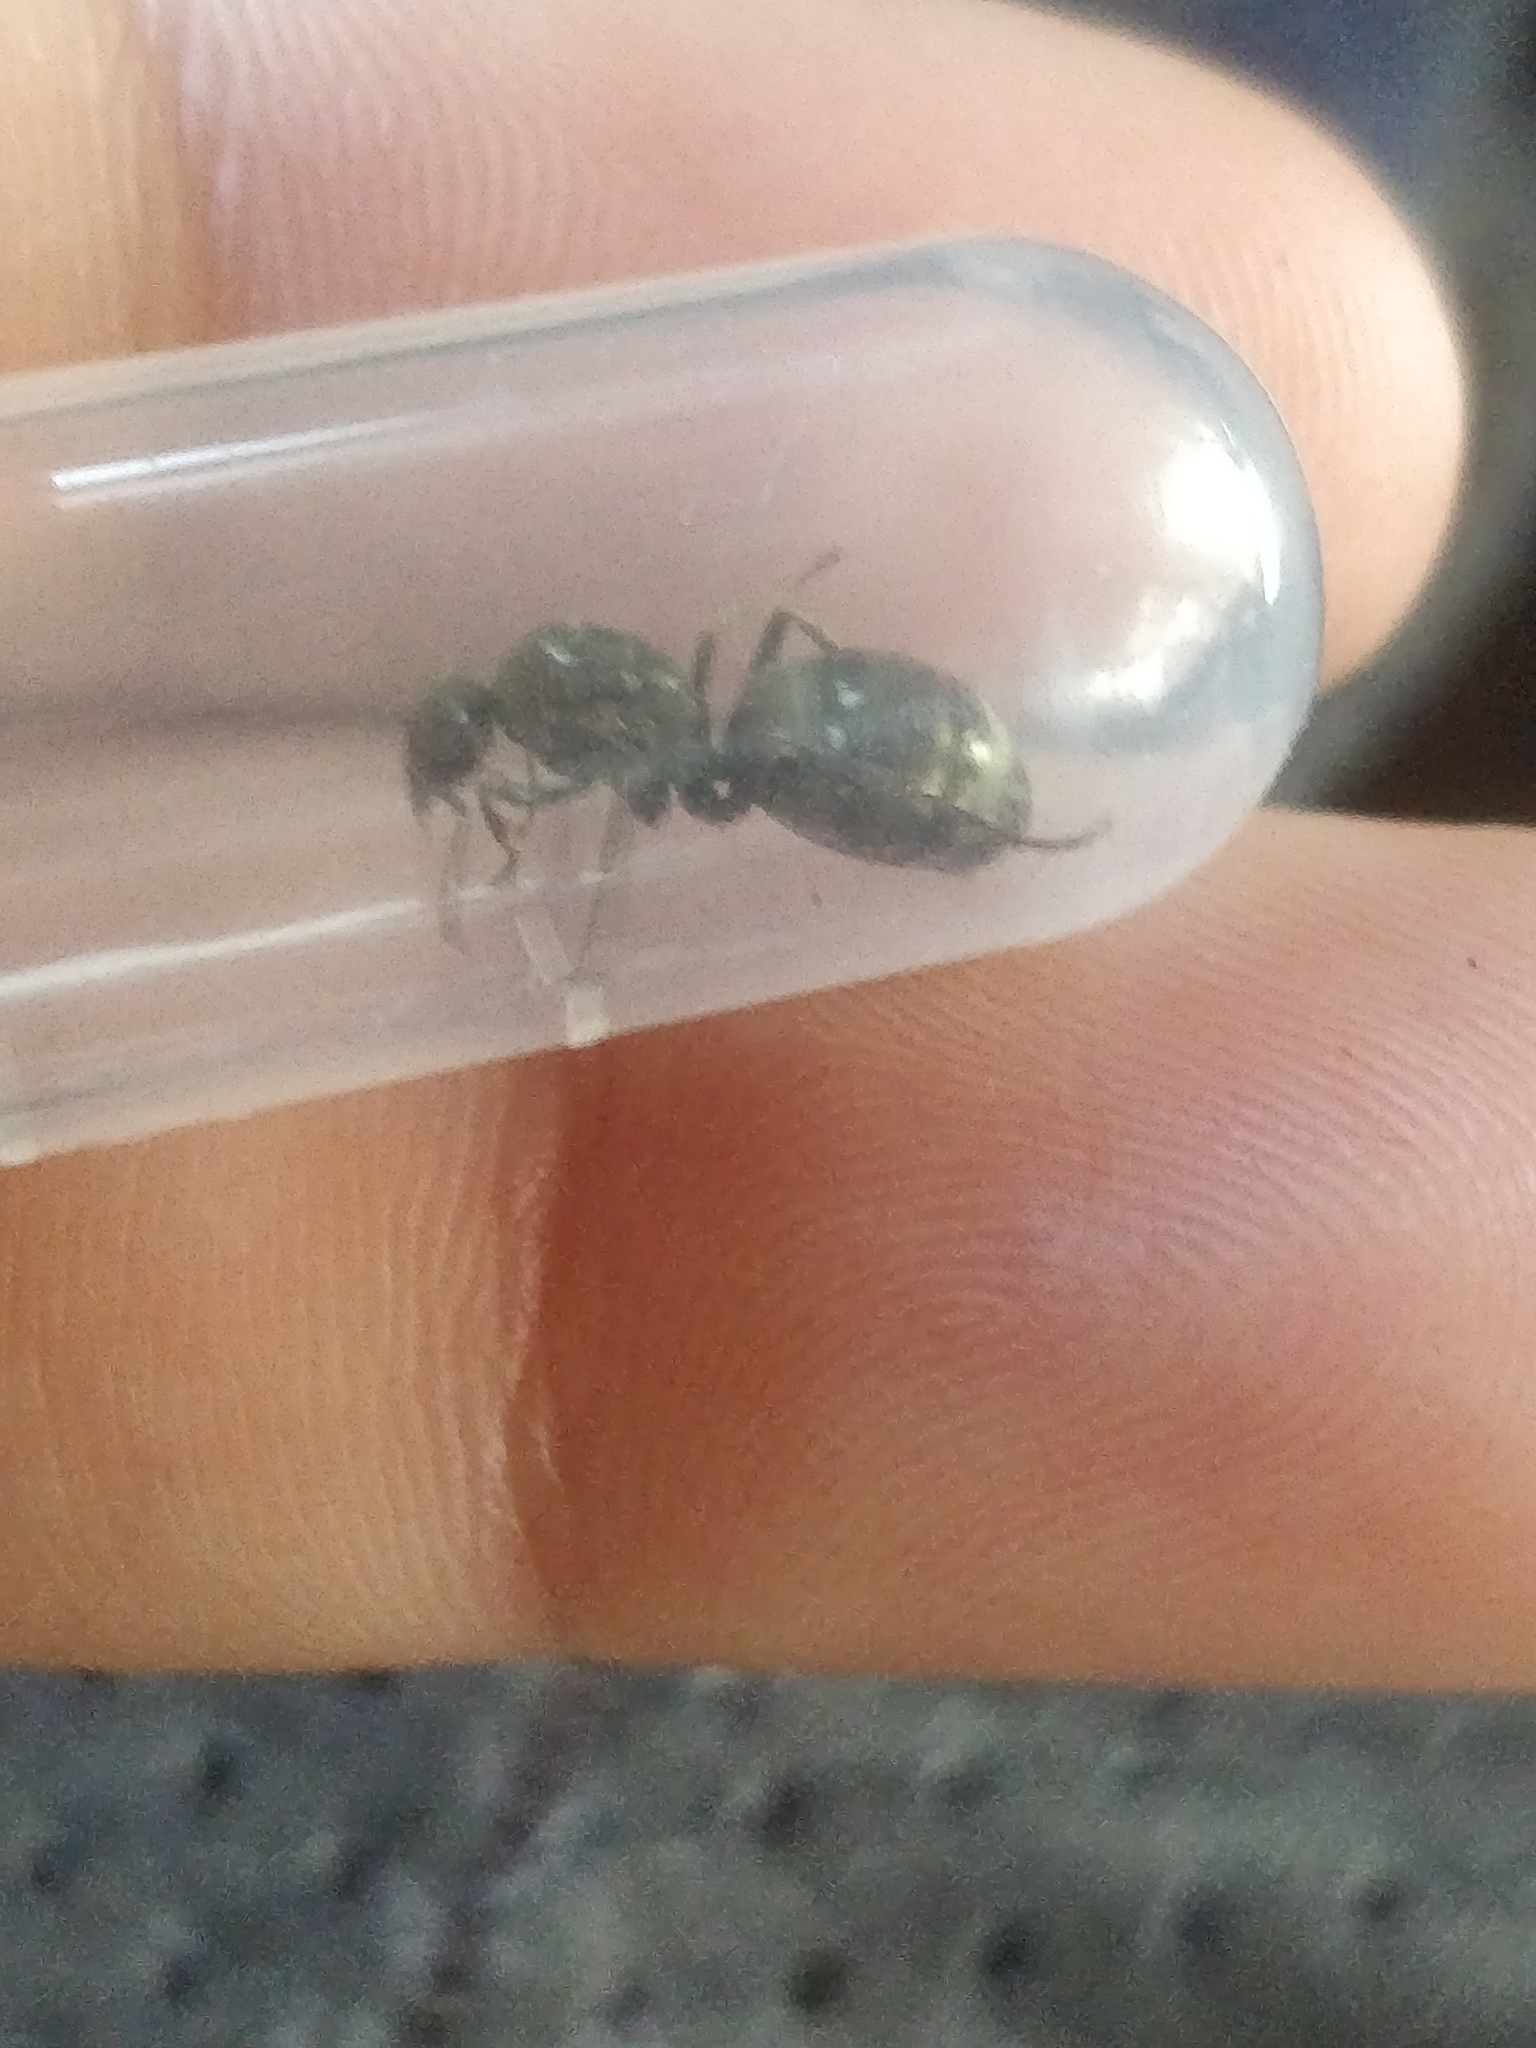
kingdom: Animalia
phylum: Arthropoda
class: Insecta
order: Hymenoptera
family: Formicidae
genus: Formica
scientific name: Formica subsericea
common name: Silky field ant
